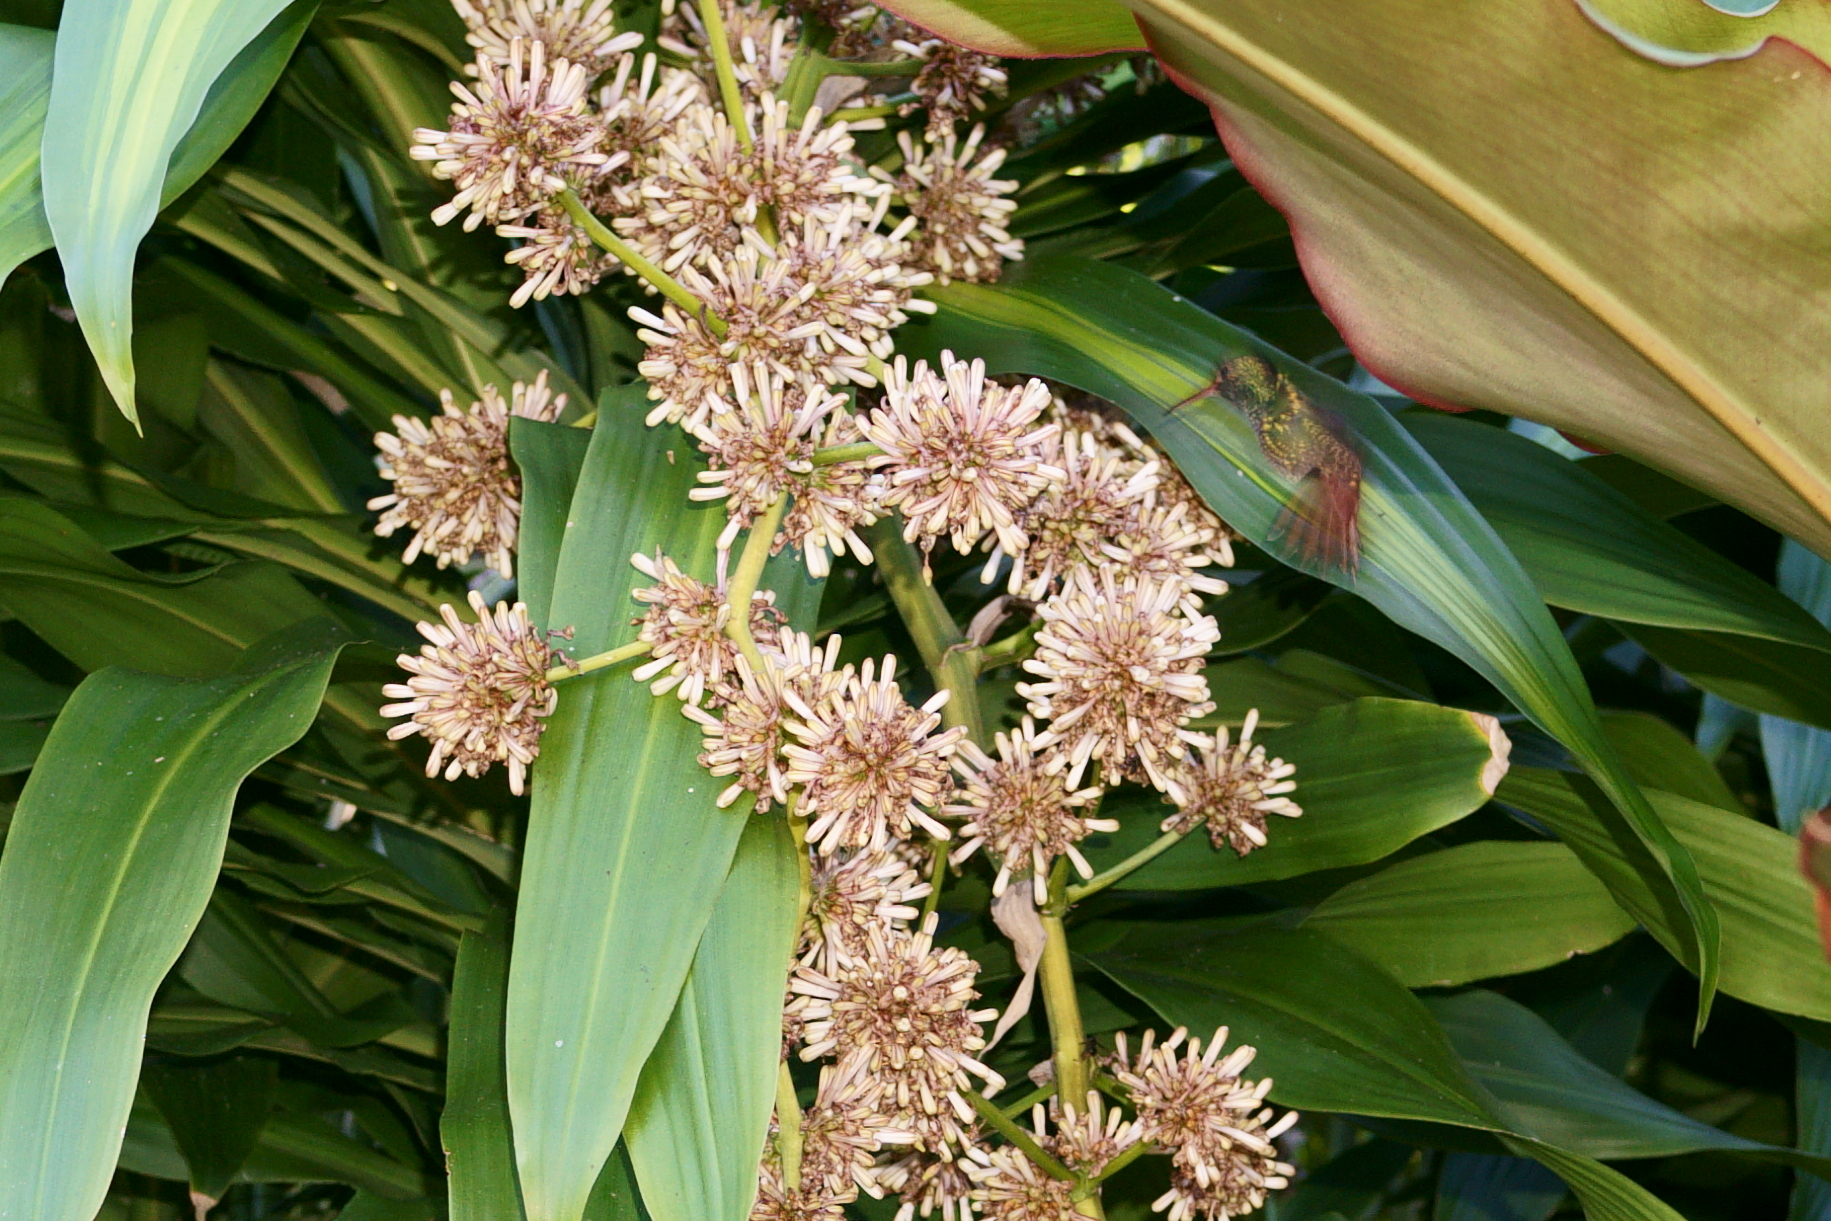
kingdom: Animalia
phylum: Chordata
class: Aves
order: Apodiformes
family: Trochilidae
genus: Amazilia
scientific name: Amazilia tzacatl
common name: Rufous-tailed hummingbird
